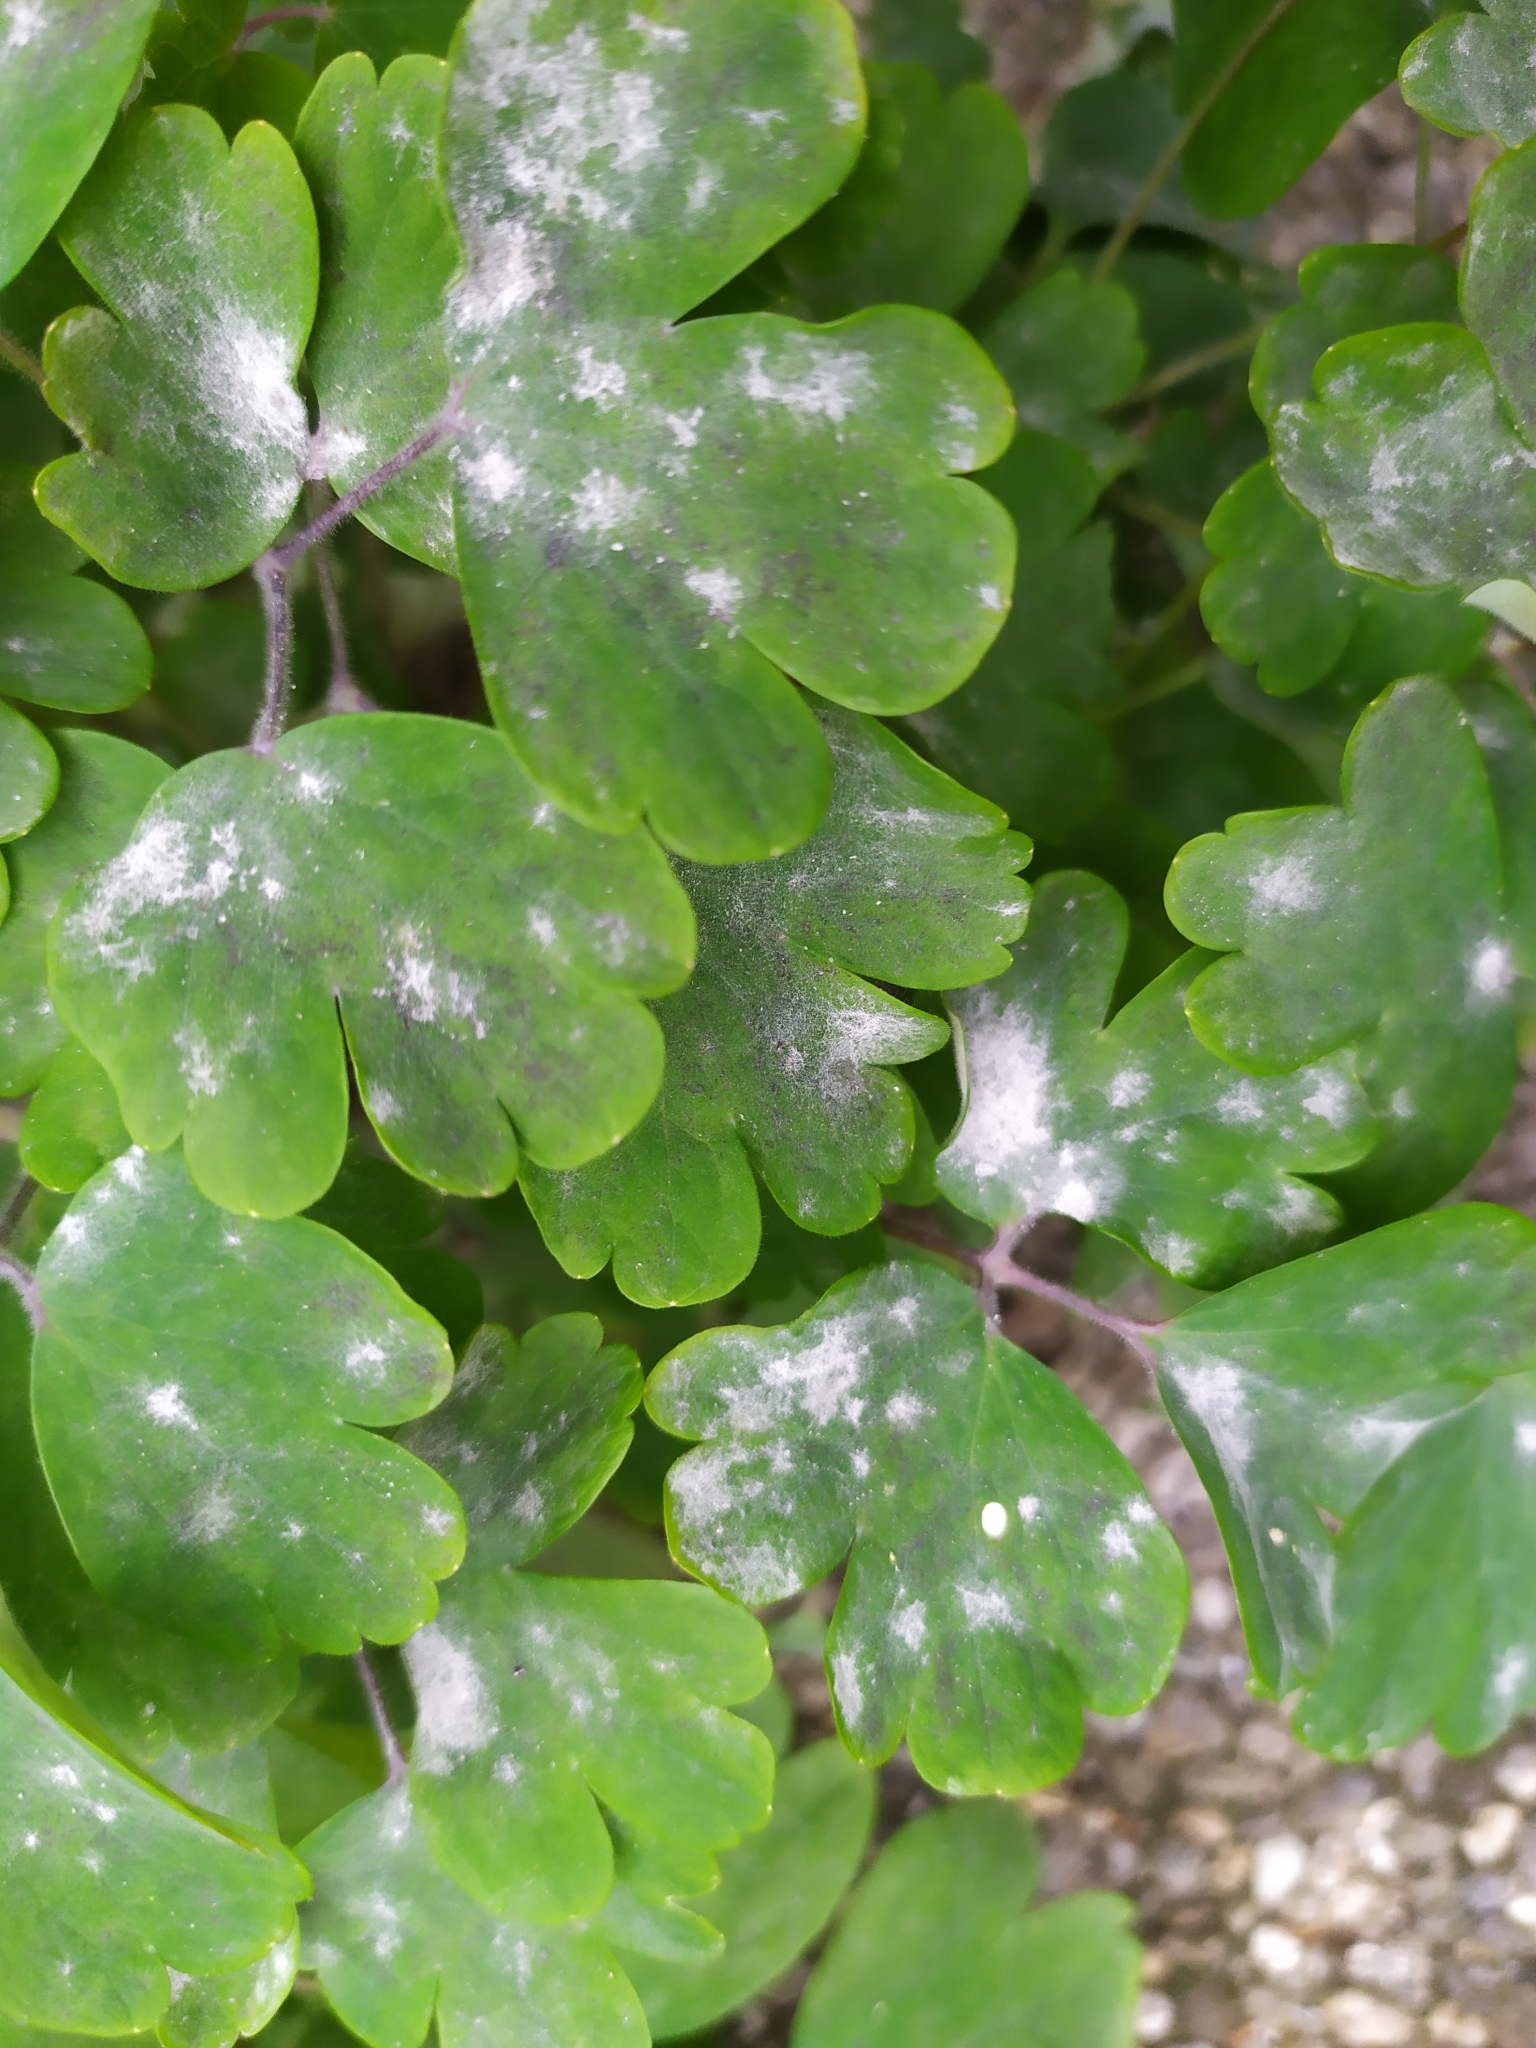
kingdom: Fungi
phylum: Ascomycota
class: Leotiomycetes
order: Helotiales
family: Erysiphaceae
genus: Erysiphe
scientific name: Erysiphe aquilegiae
